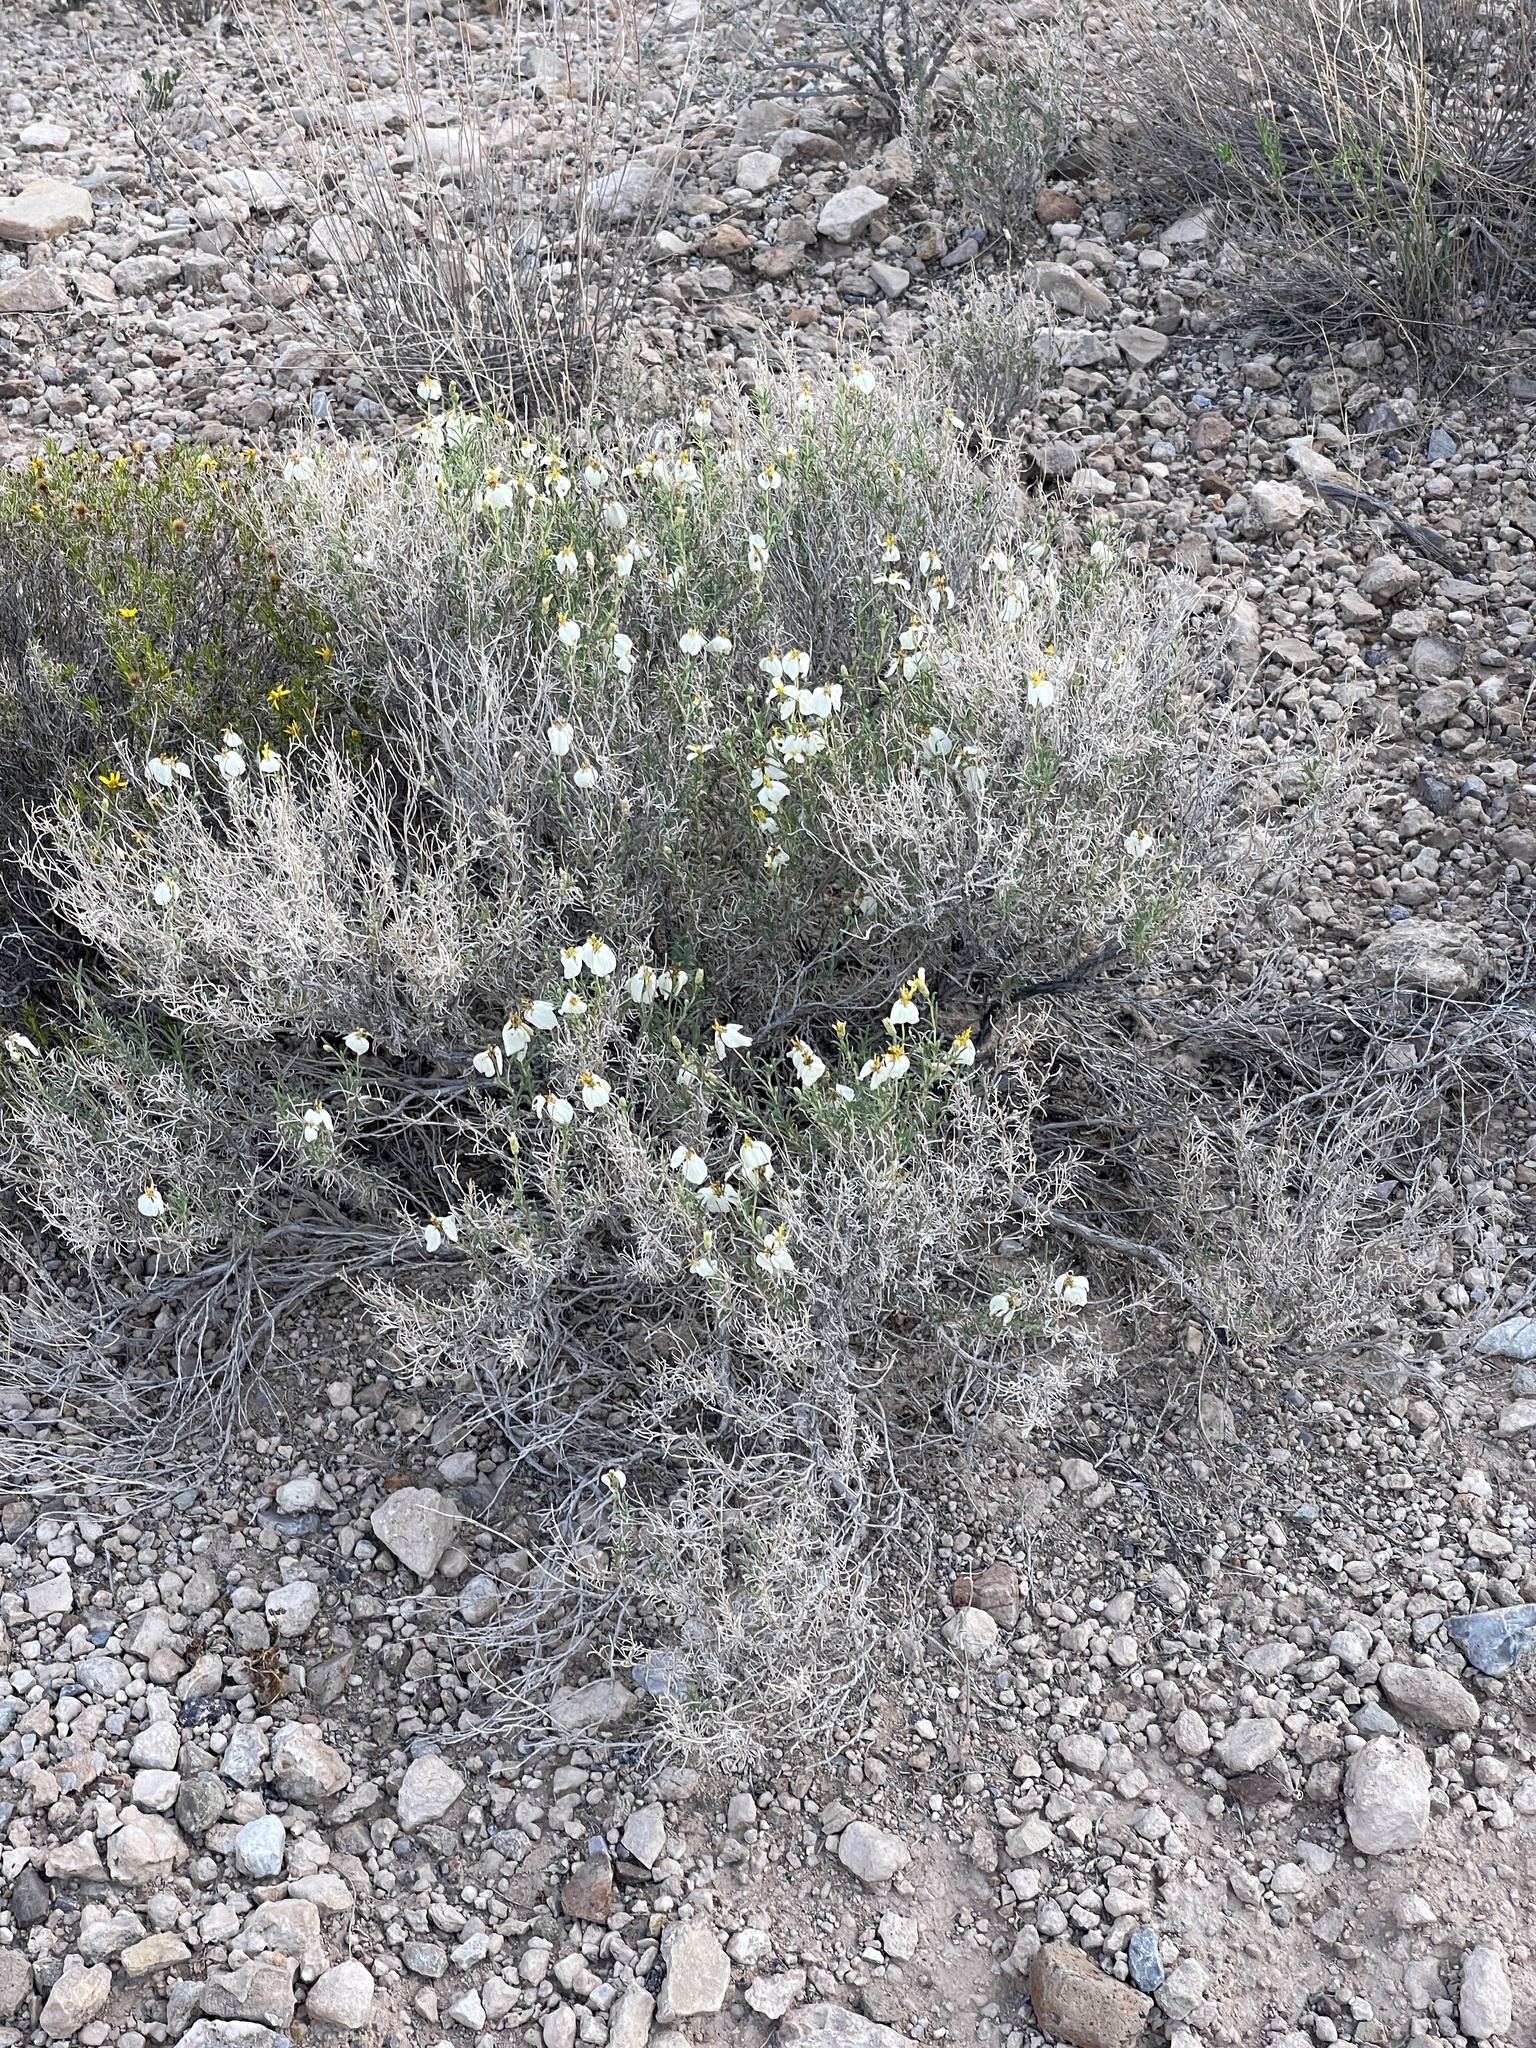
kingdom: Plantae
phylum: Tracheophyta
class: Magnoliopsida
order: Asterales
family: Asteraceae
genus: Zinnia
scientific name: Zinnia acerosa
